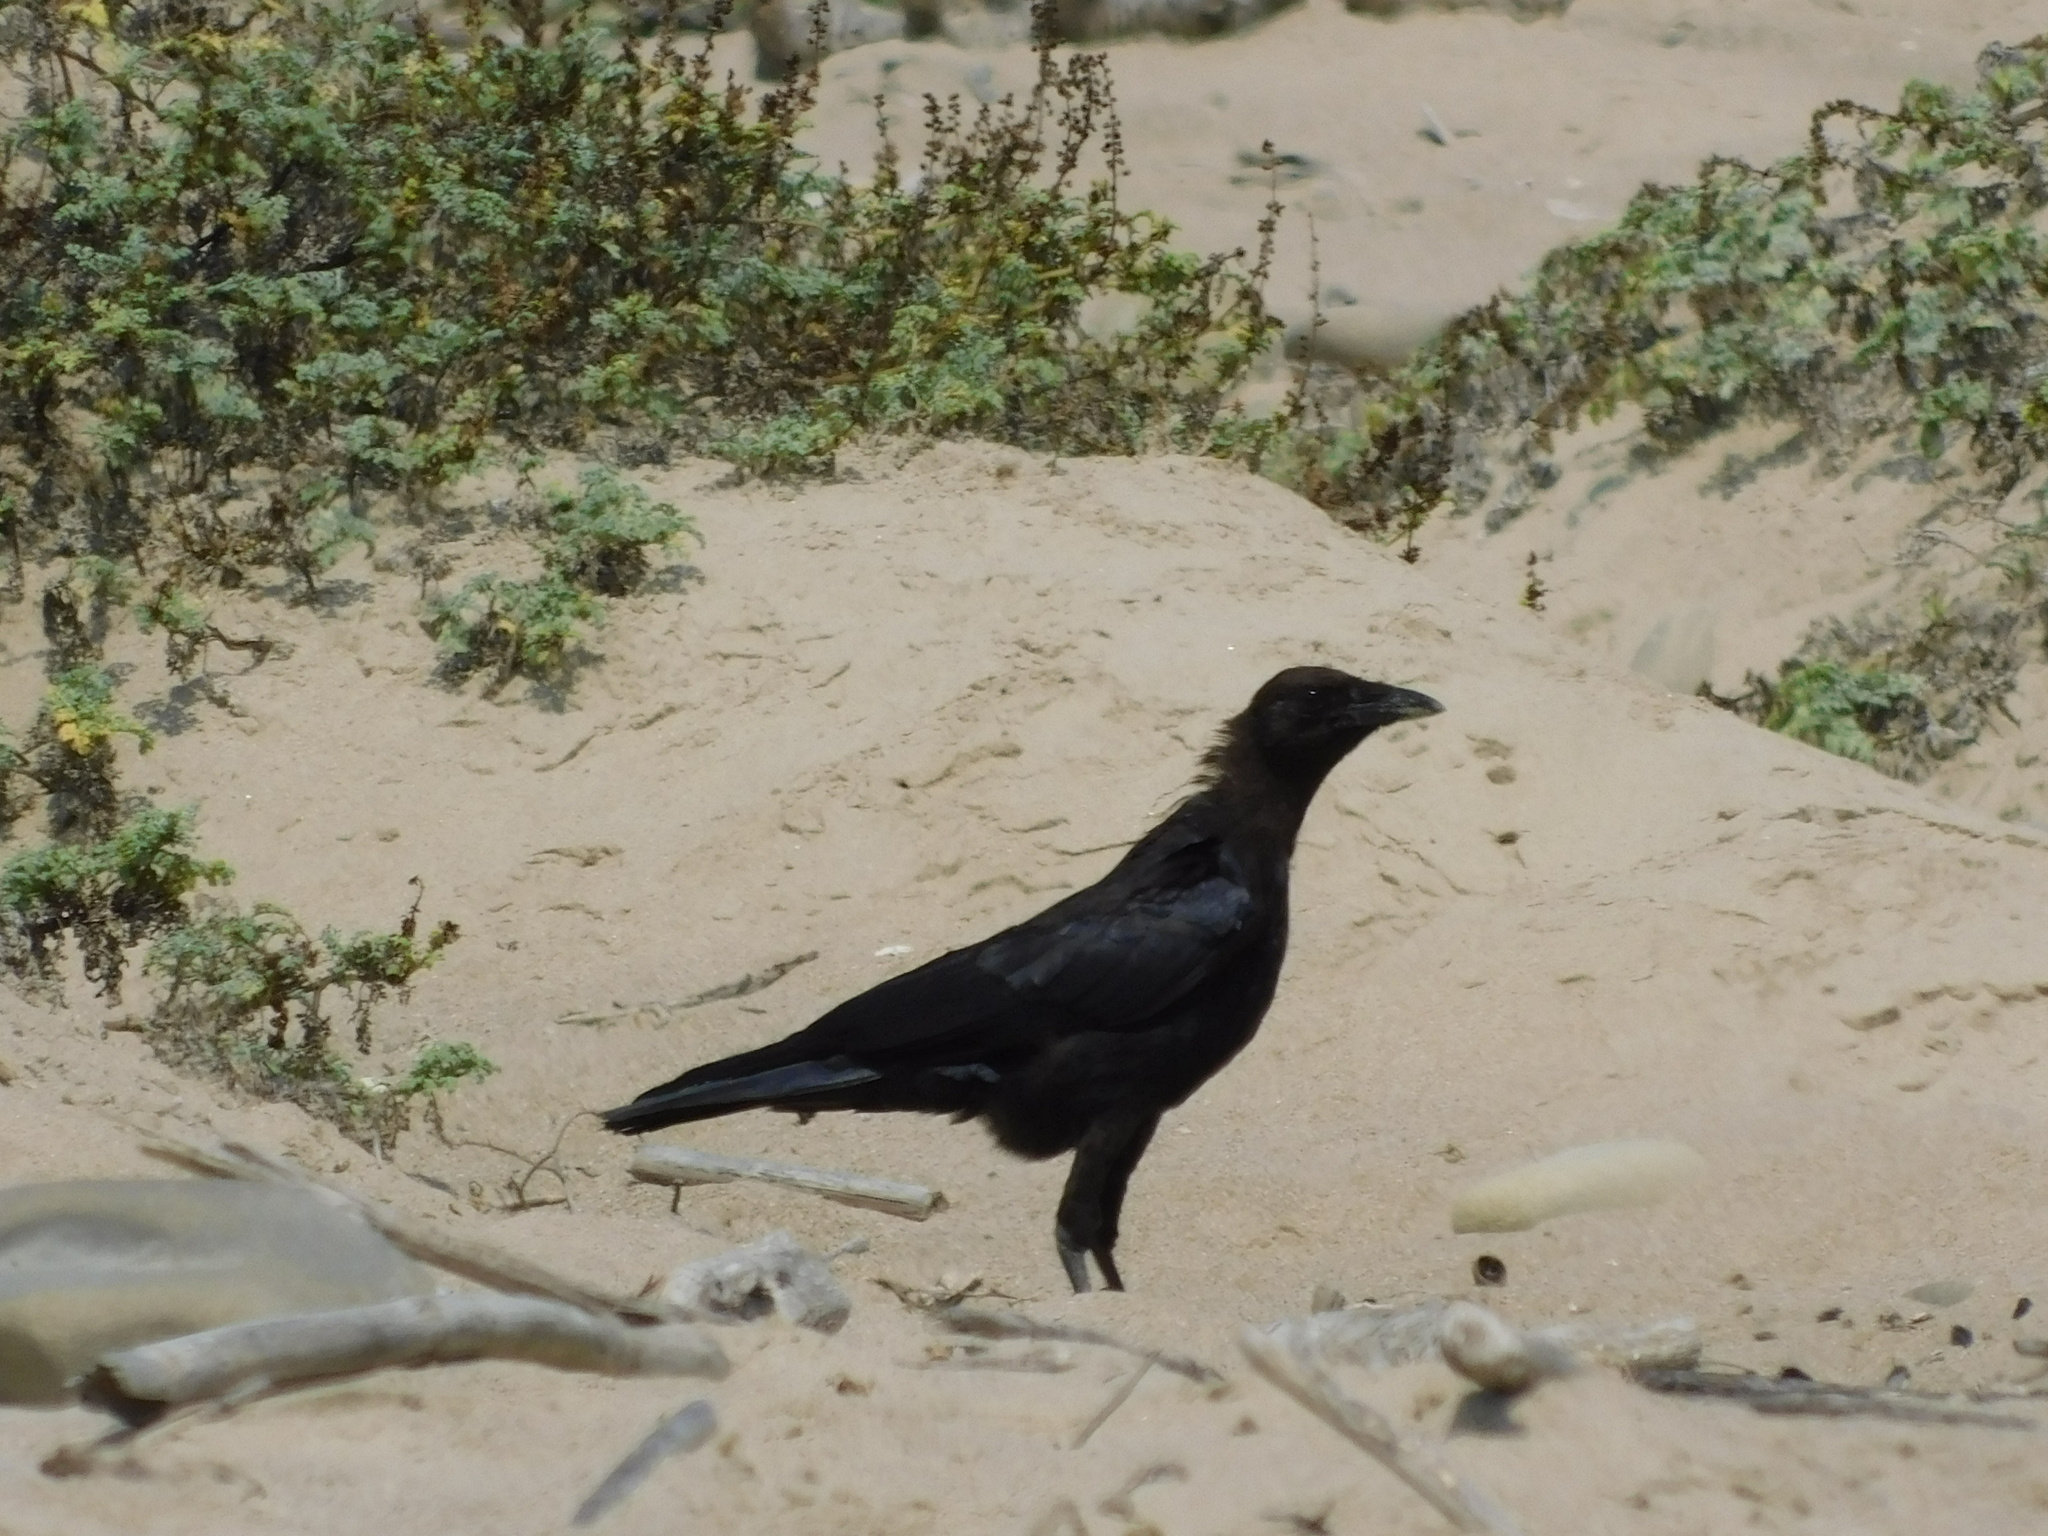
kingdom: Animalia
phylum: Chordata
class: Aves
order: Passeriformes
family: Corvidae
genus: Corvus
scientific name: Corvus brachyrhynchos
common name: American crow
